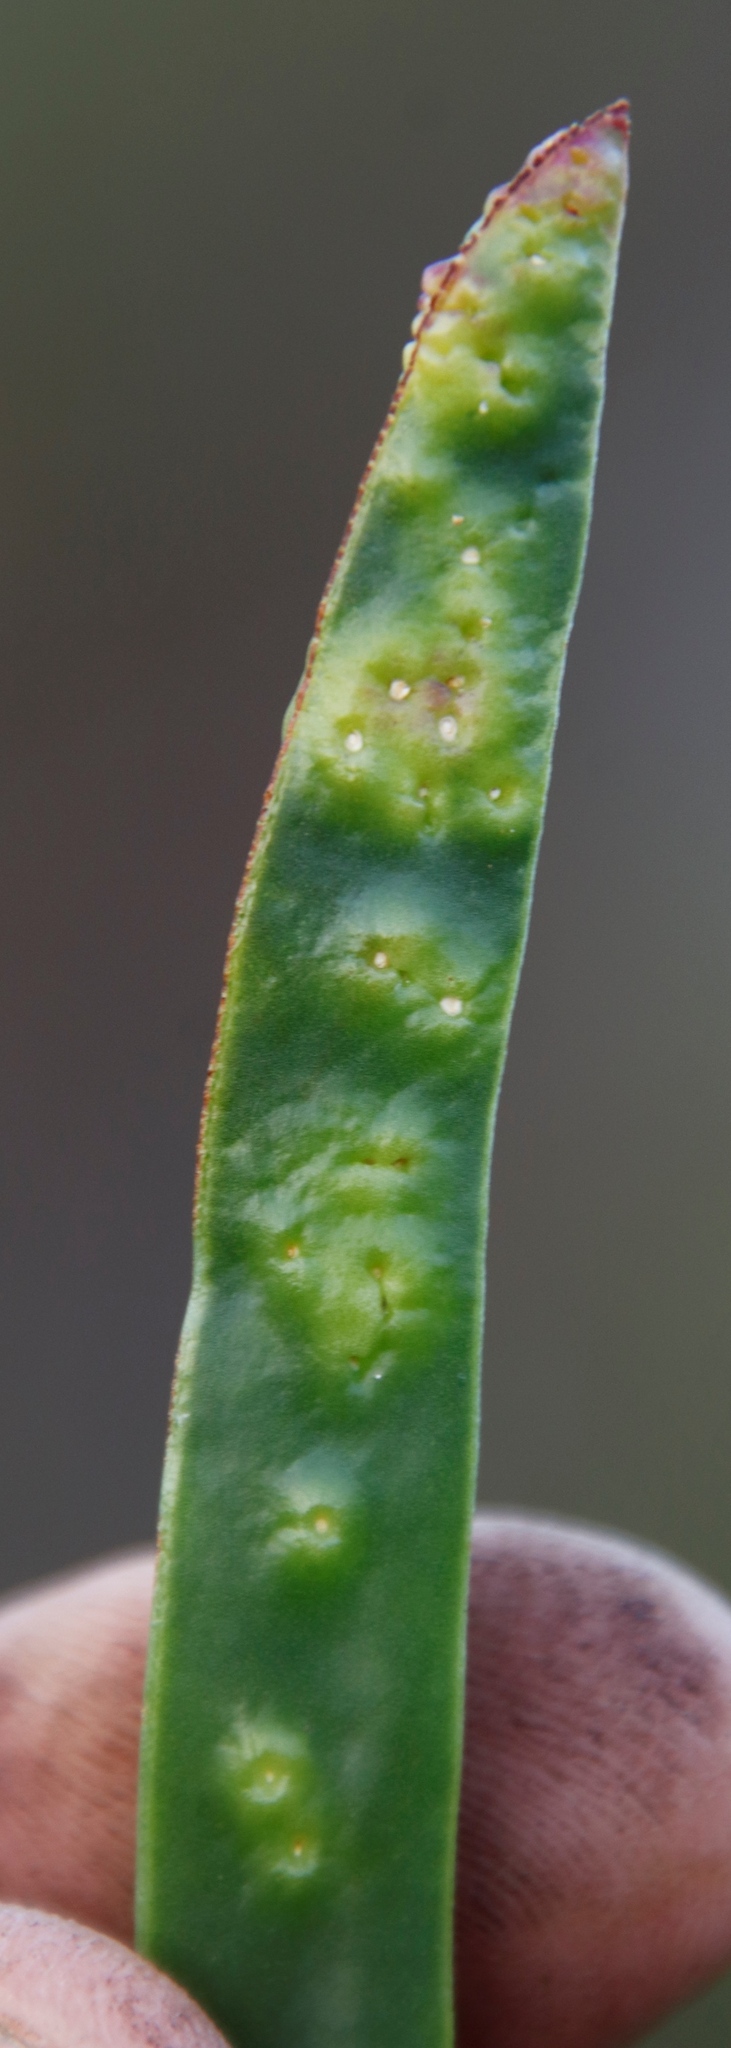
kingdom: Plantae
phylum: Tracheophyta
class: Magnoliopsida
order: Caryophyllales
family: Aizoaceae
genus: Carpobrotus
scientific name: Carpobrotus edulis
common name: Hottentot-fig
